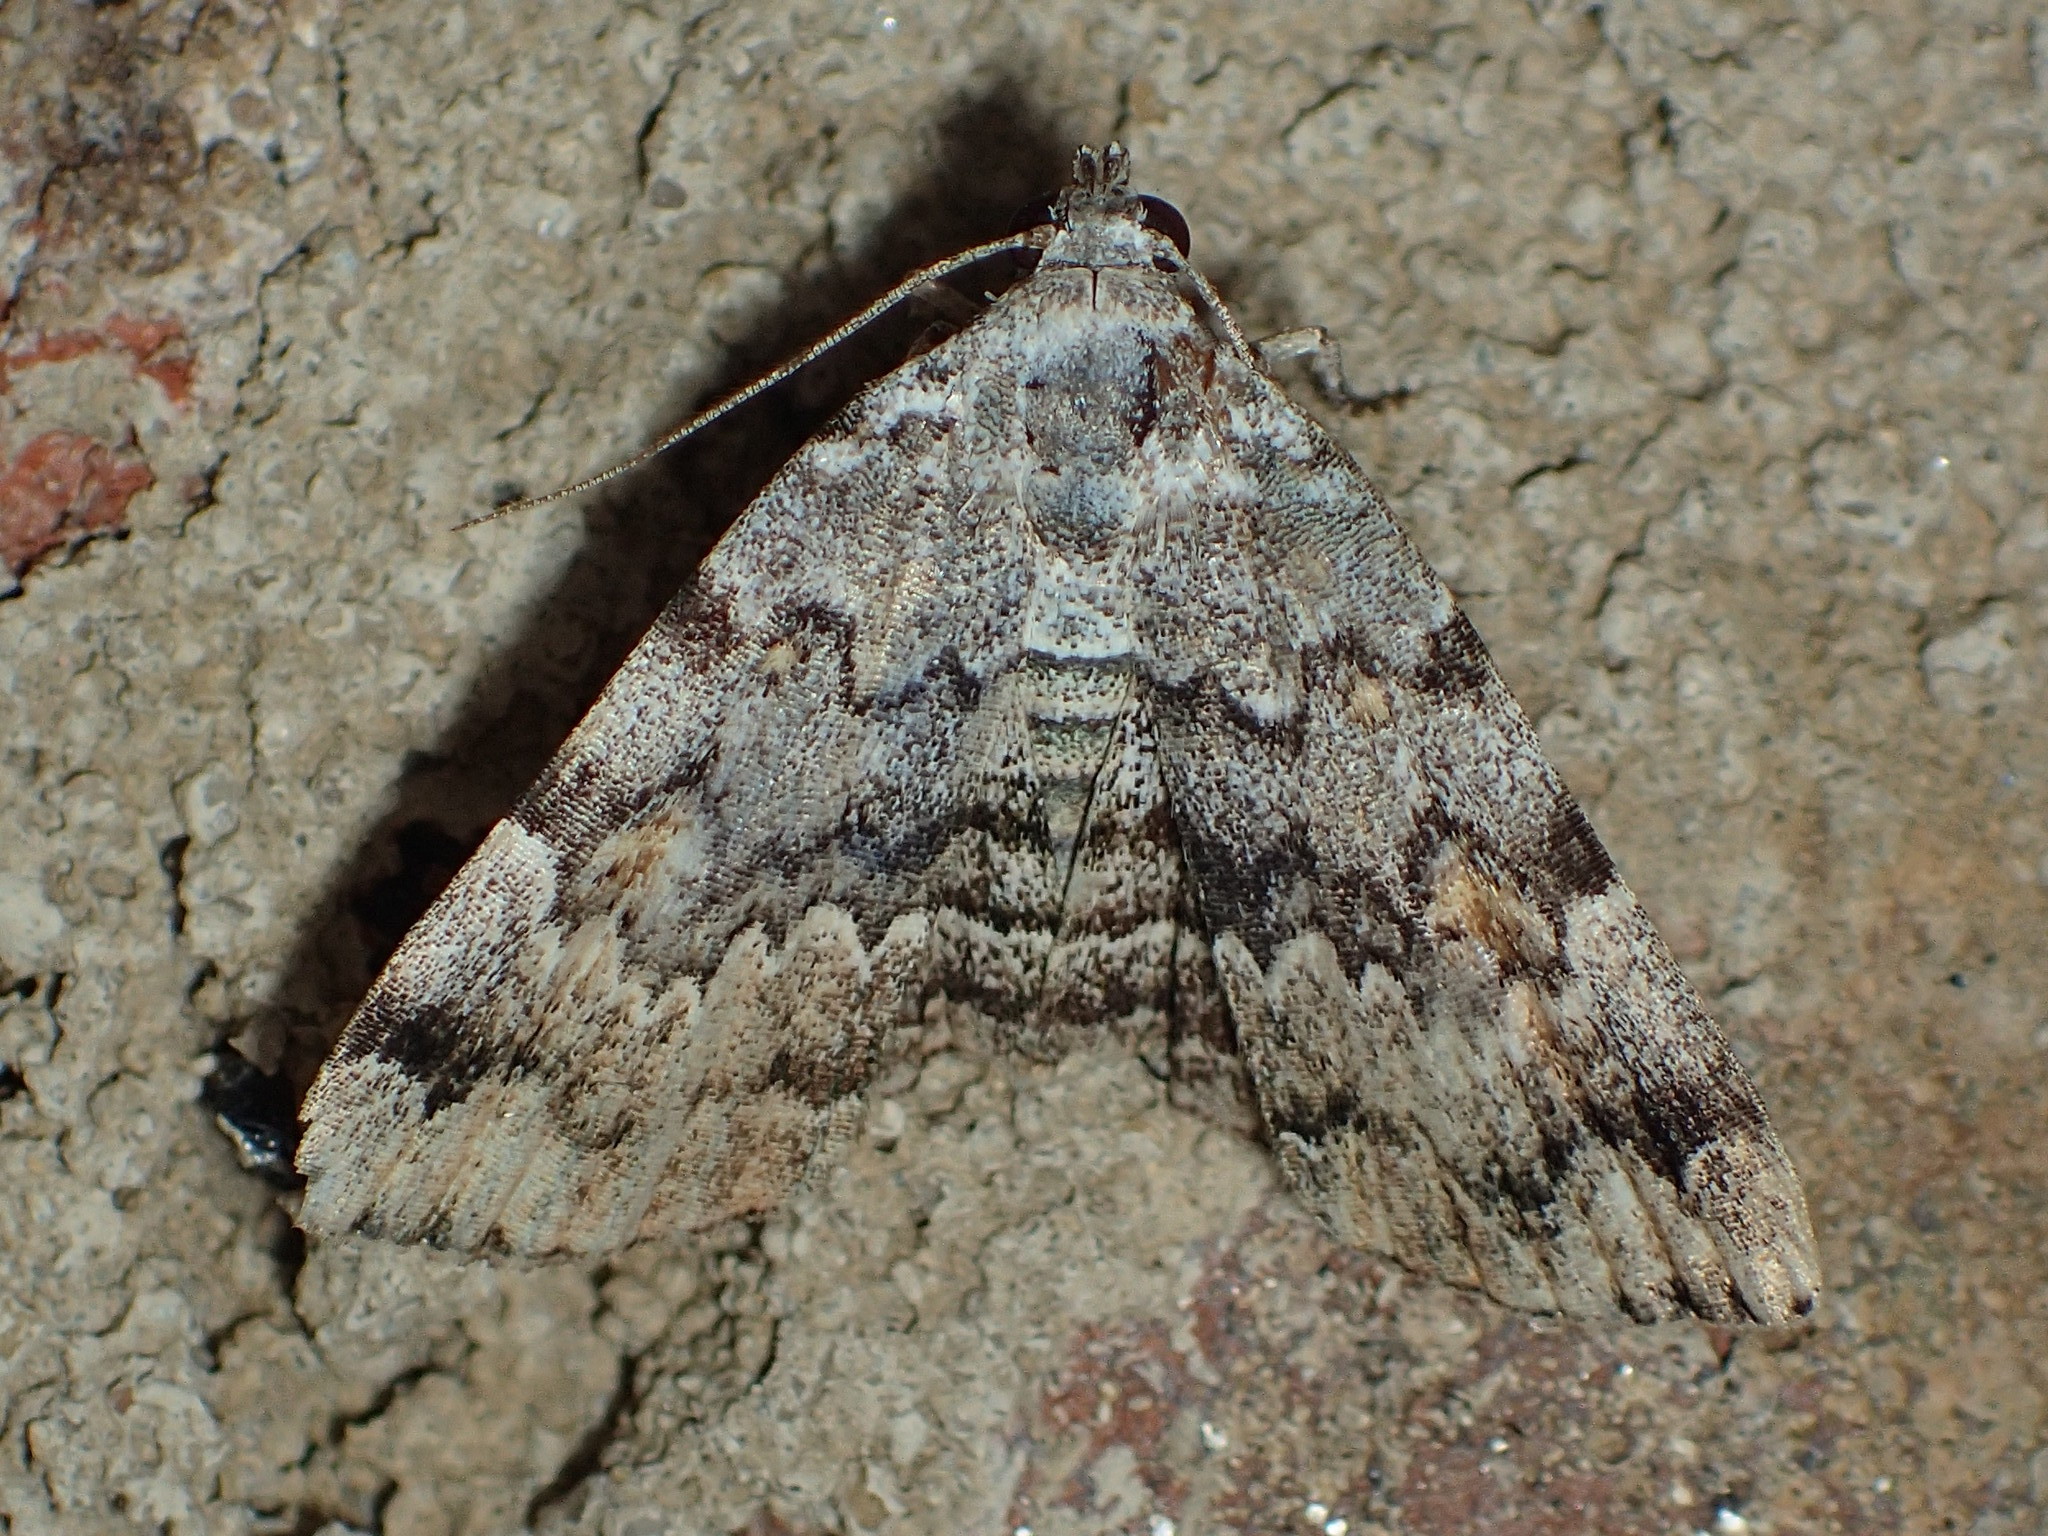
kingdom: Animalia
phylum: Arthropoda
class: Insecta
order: Lepidoptera
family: Erebidae
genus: Idia
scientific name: Idia americalis
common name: American idia moth
